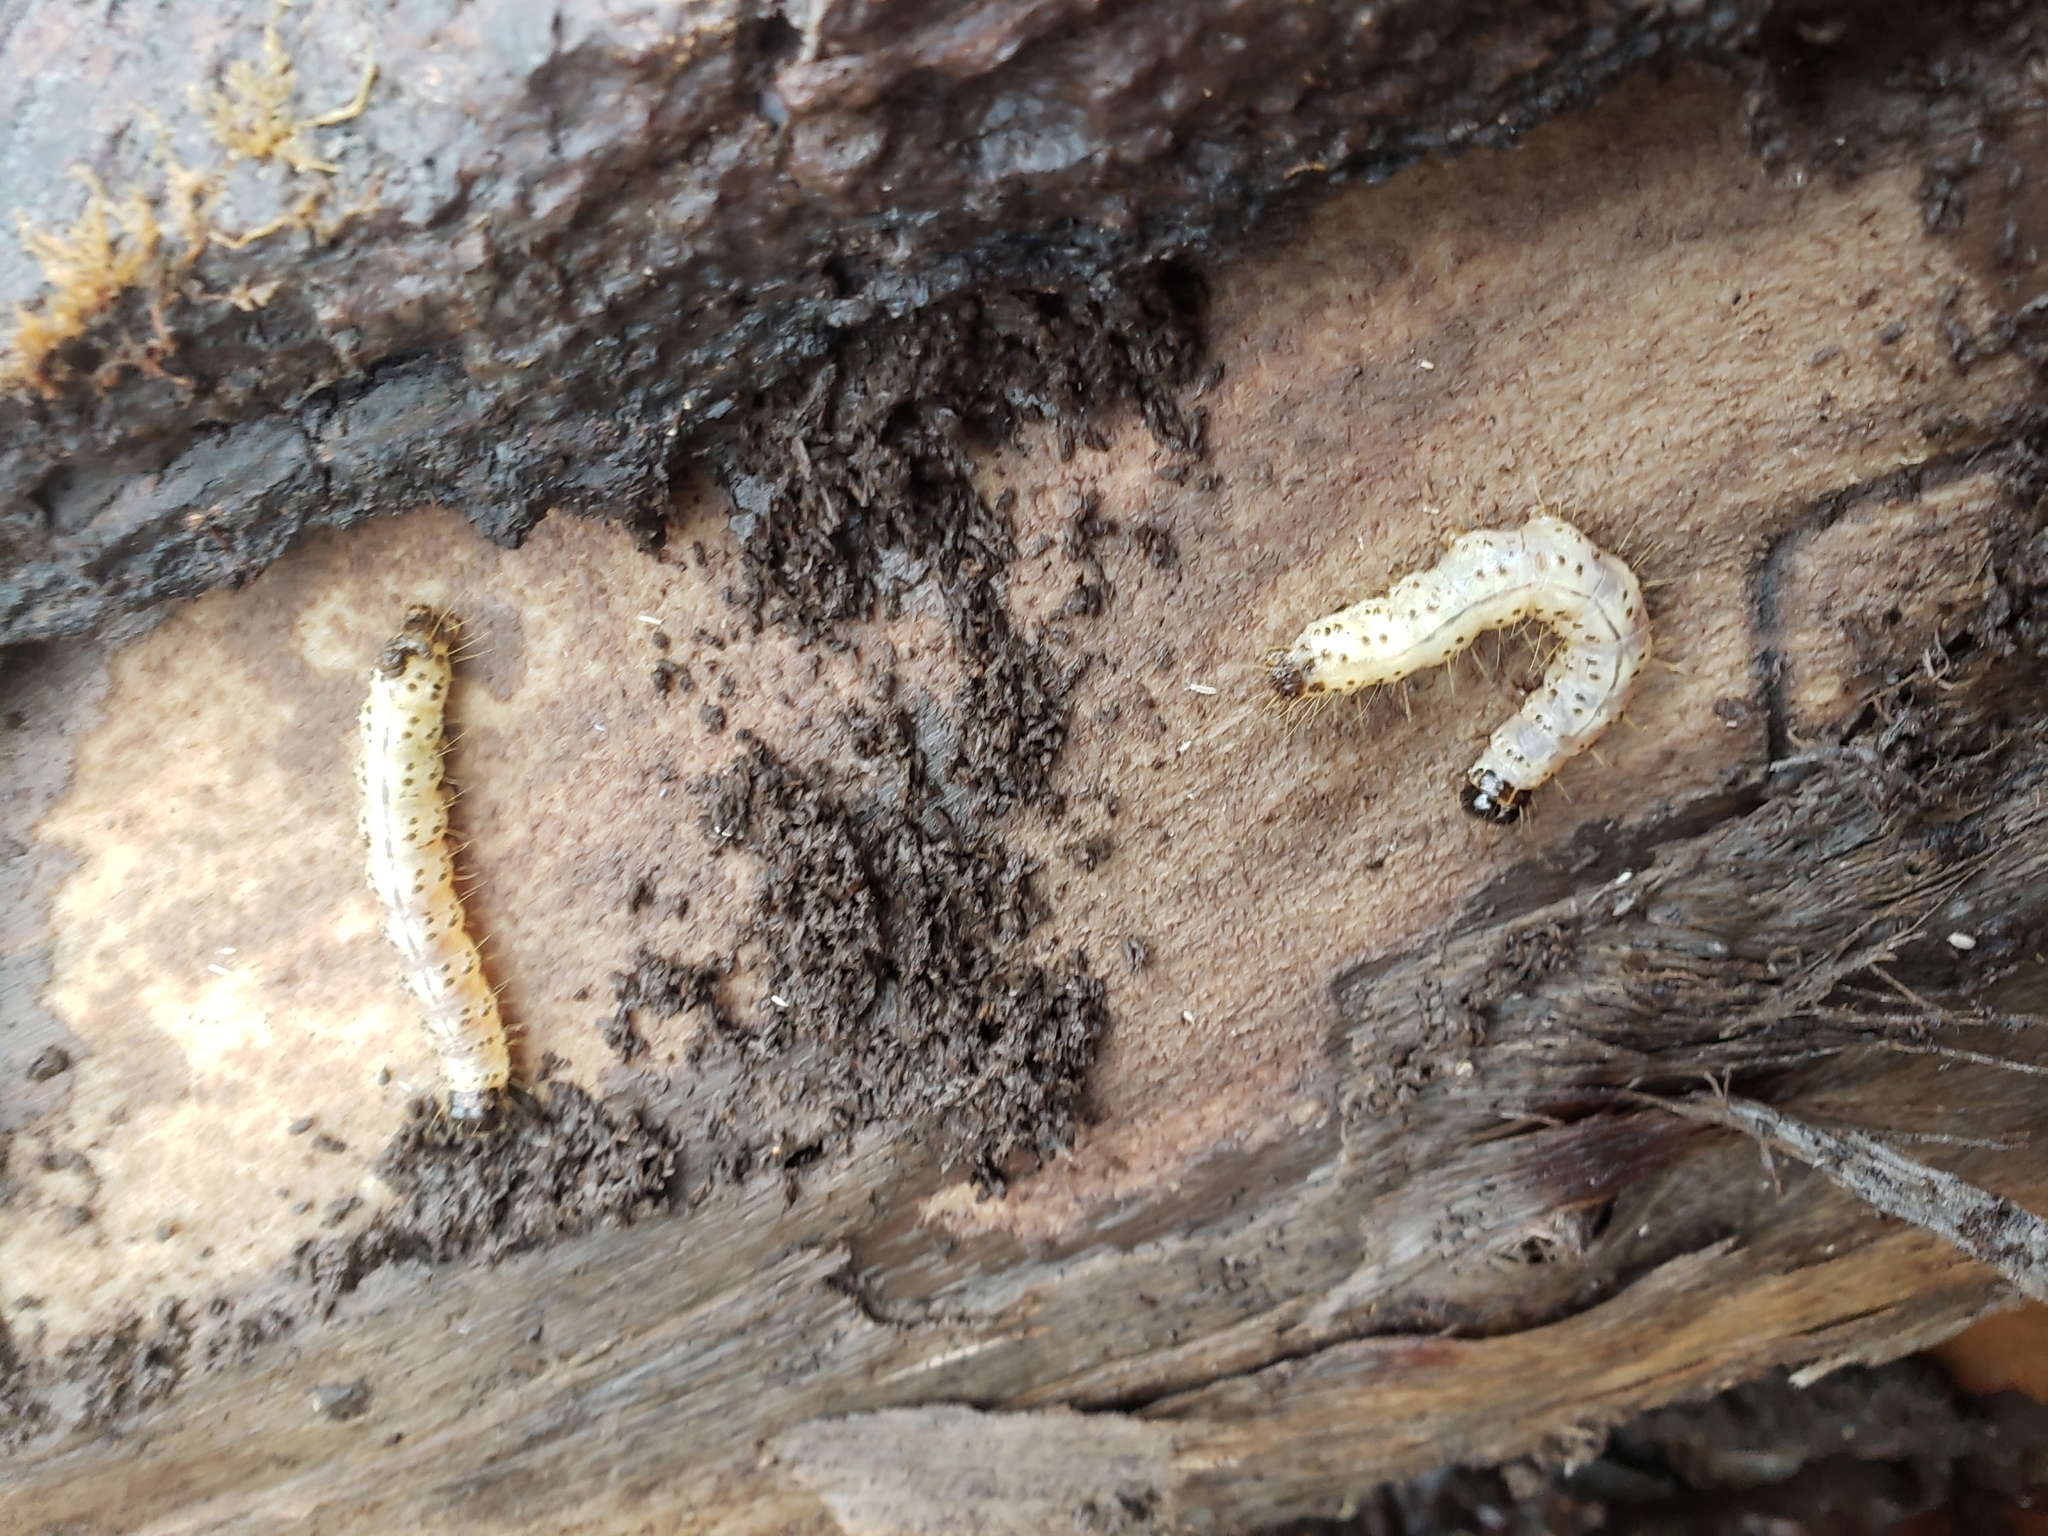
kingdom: Animalia
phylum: Arthropoda
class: Insecta
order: Lepidoptera
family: Erebidae
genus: Scolecocampa
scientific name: Scolecocampa liburna
